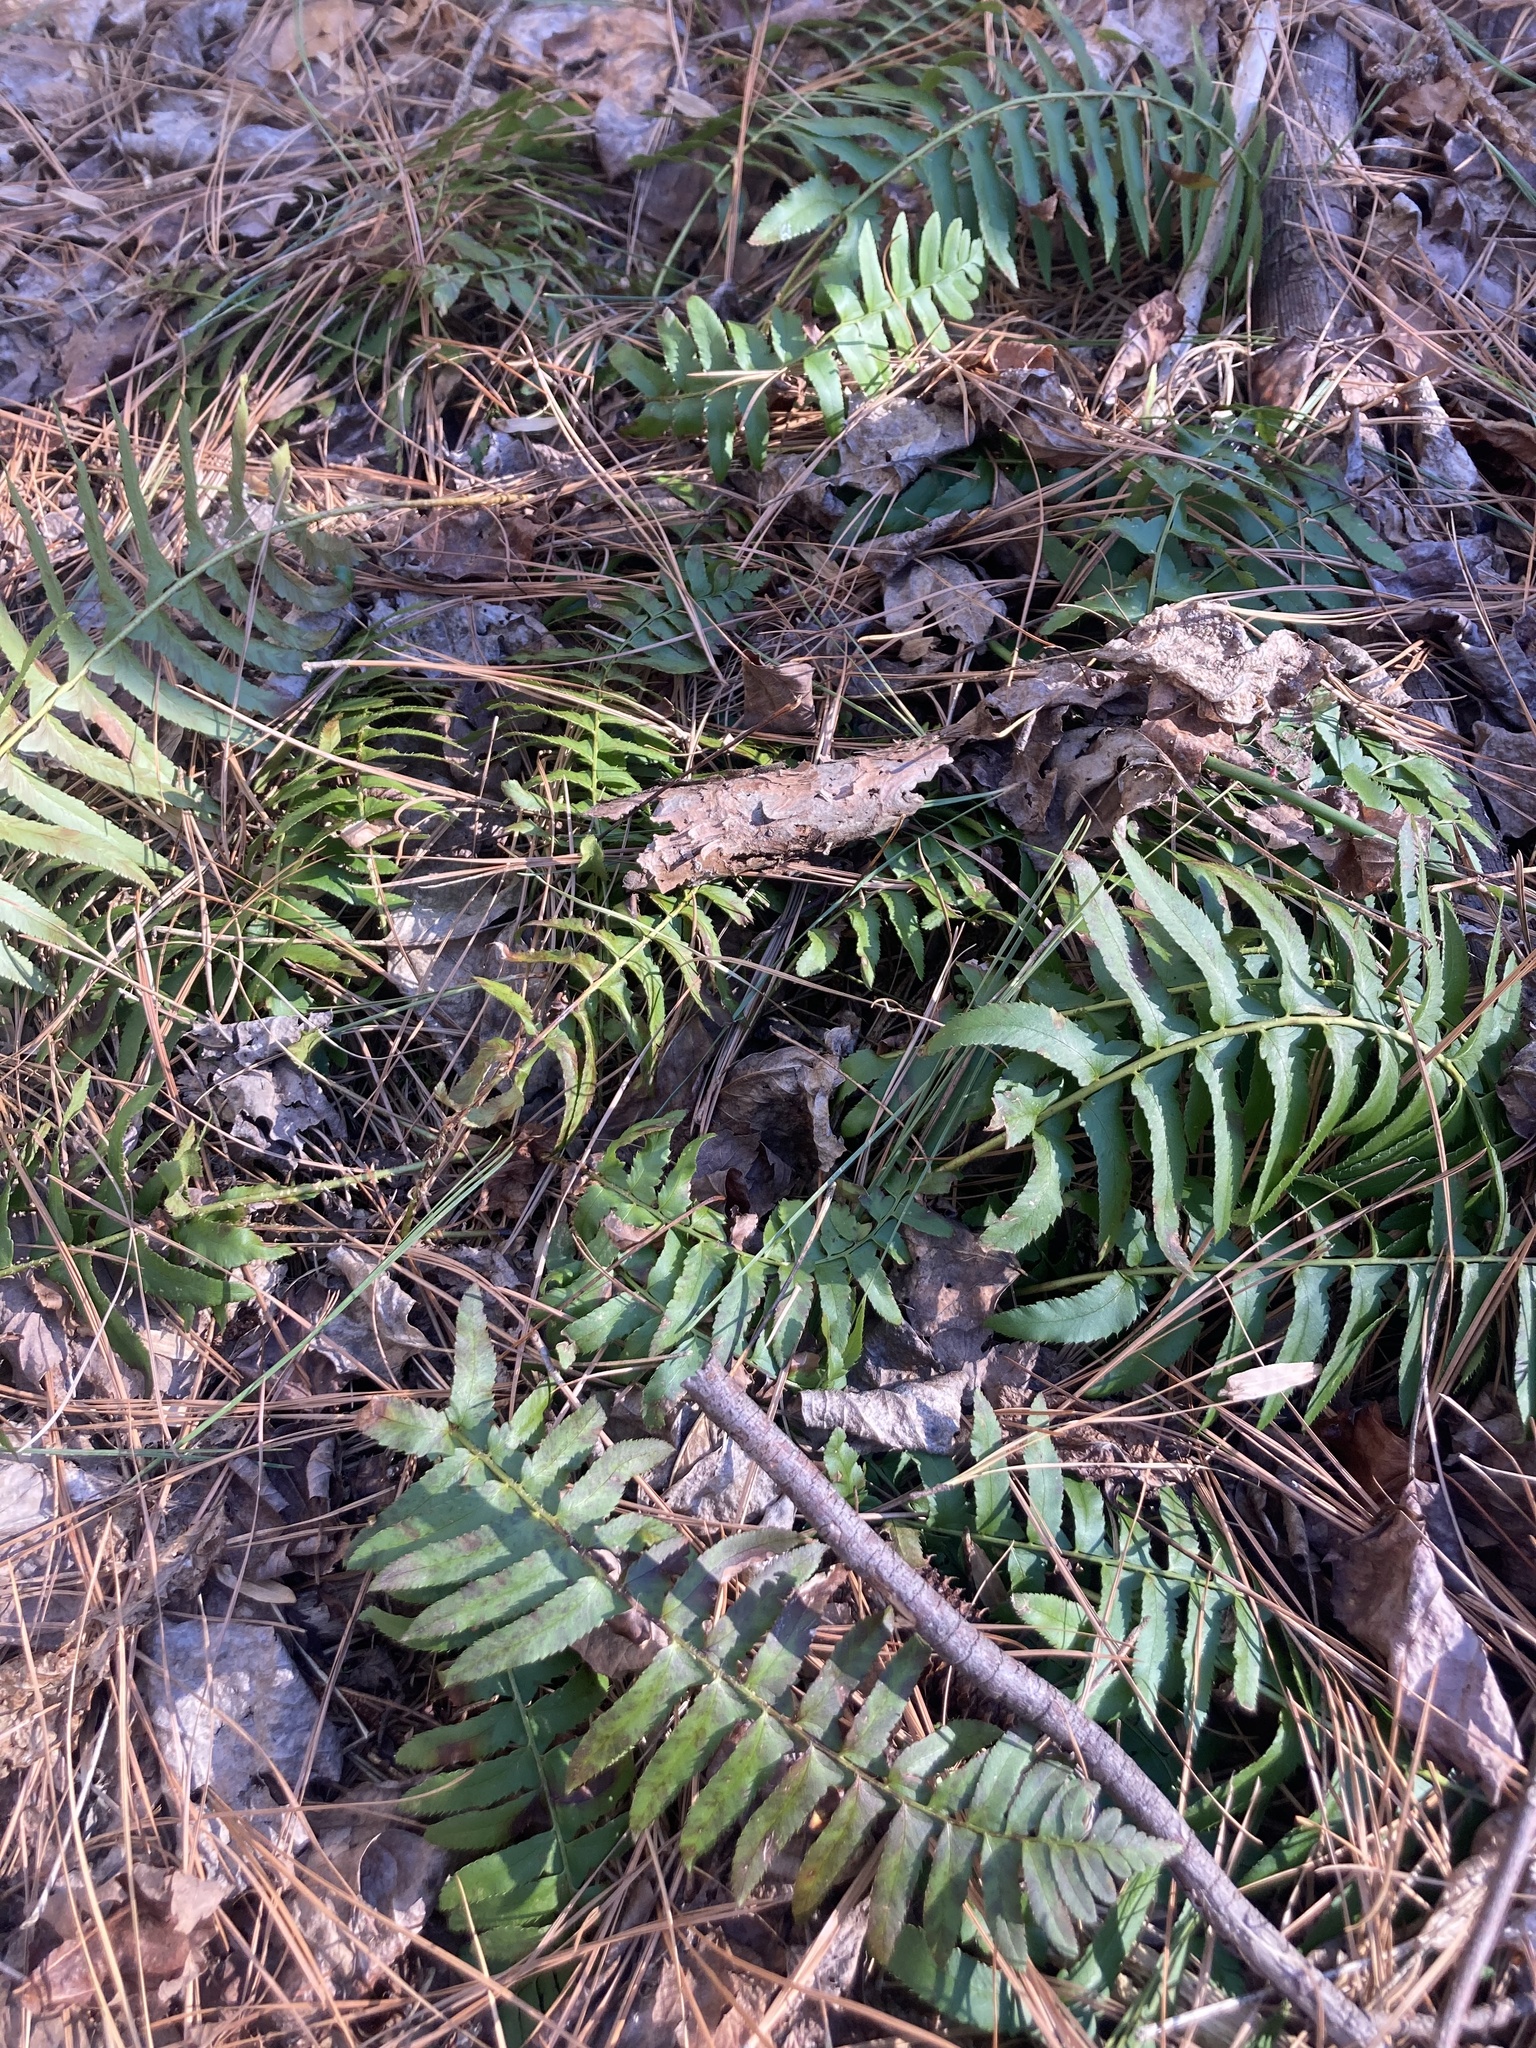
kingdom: Plantae
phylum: Tracheophyta
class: Polypodiopsida
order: Polypodiales
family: Dryopteridaceae
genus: Polystichum
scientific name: Polystichum acrostichoides
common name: Christmas fern
